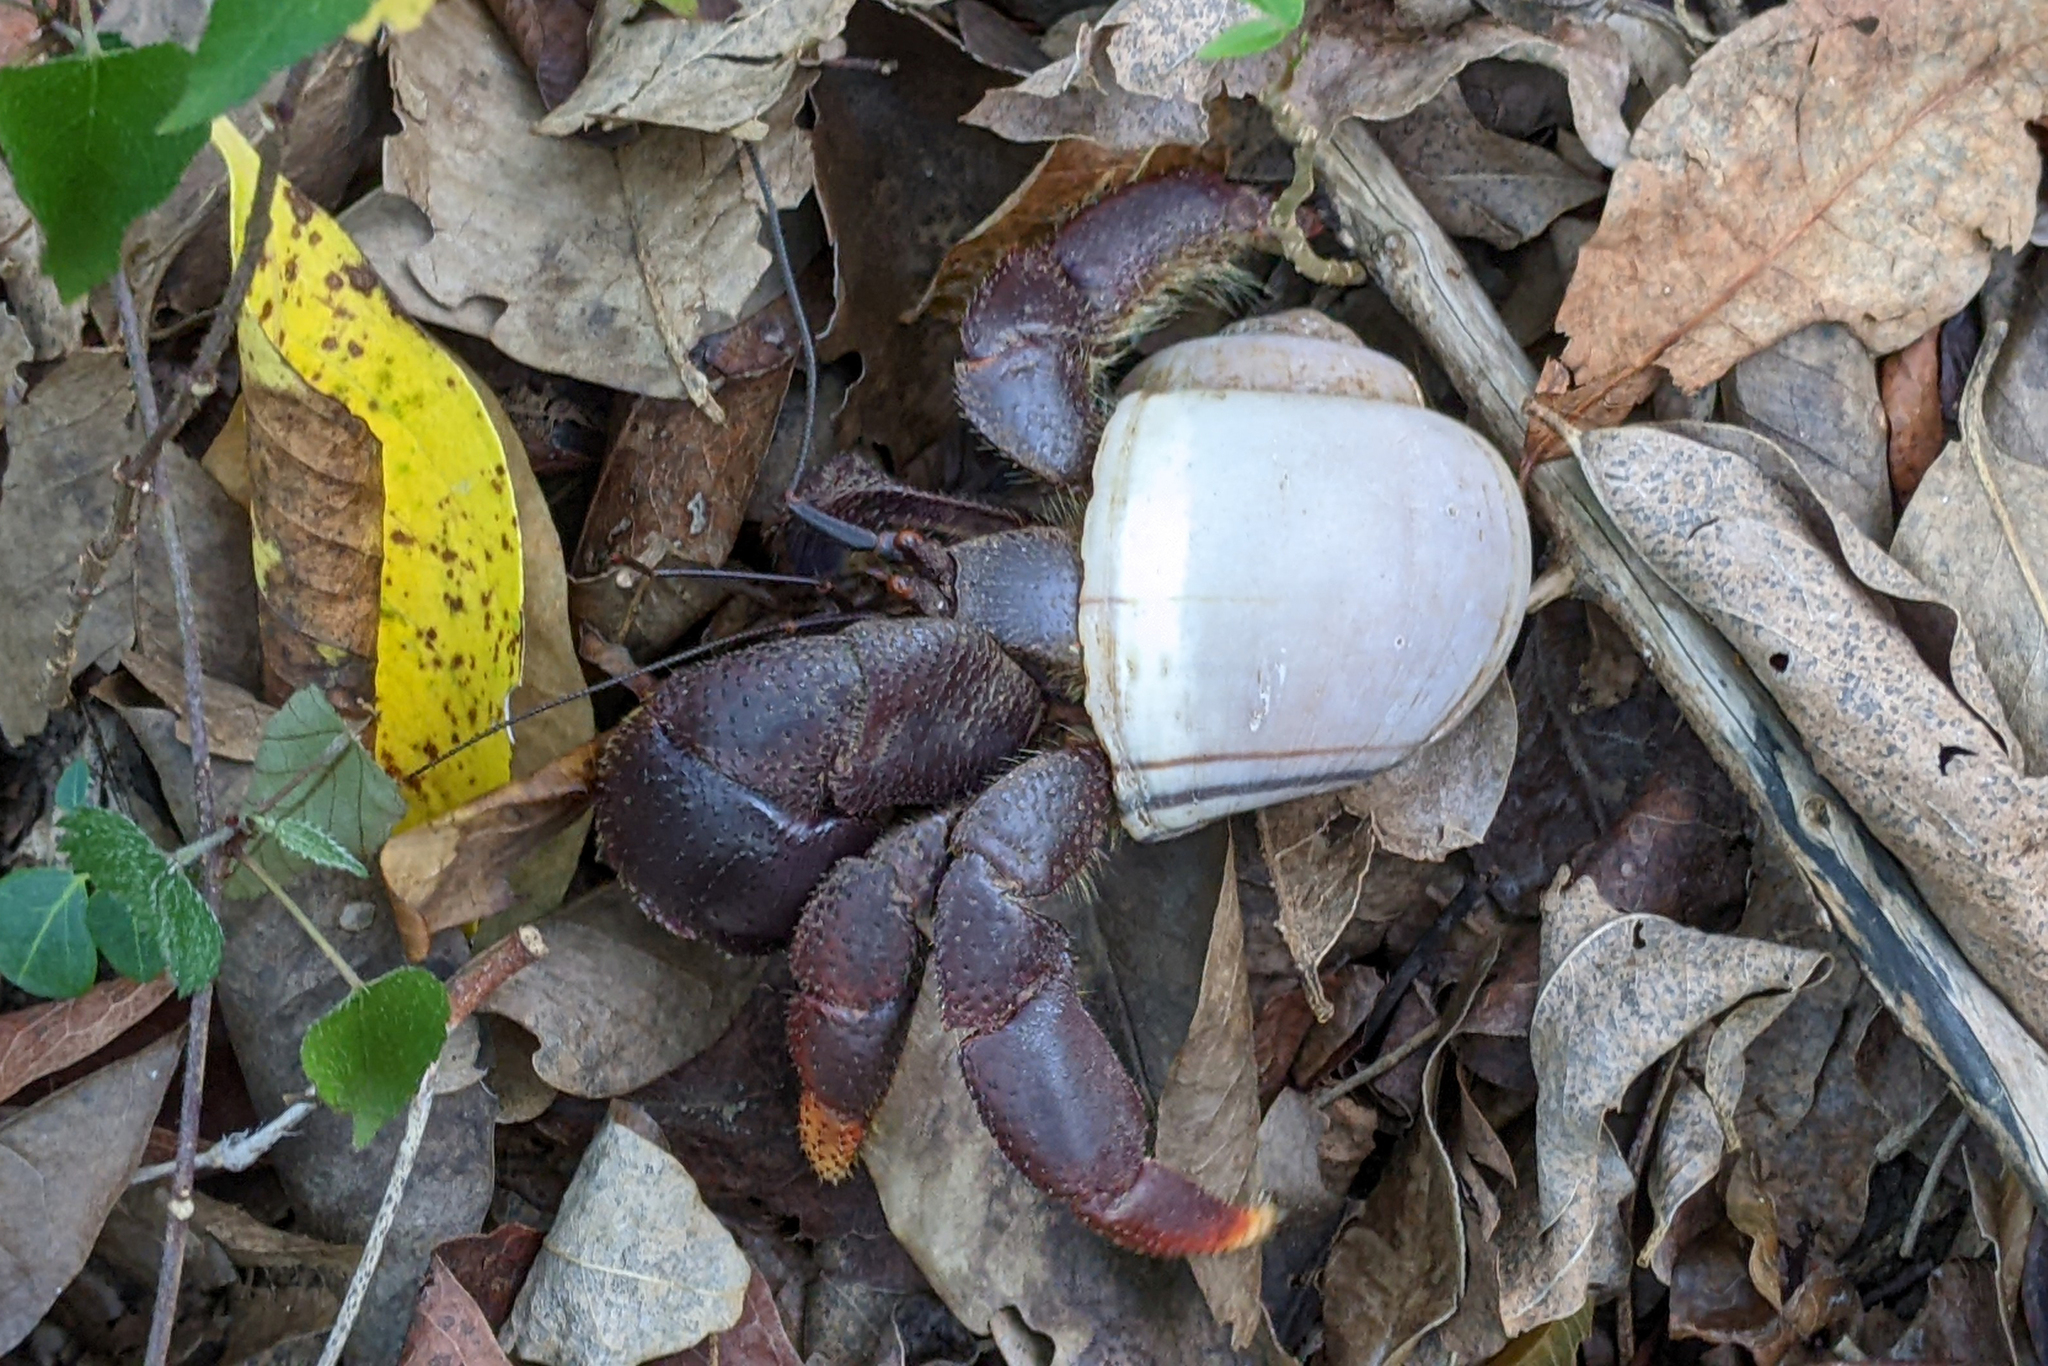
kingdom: Animalia
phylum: Arthropoda
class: Malacostraca
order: Decapoda
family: Coenobitidae
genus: Coenobita
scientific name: Coenobita clypeatus
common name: Caribbean hermit crab
